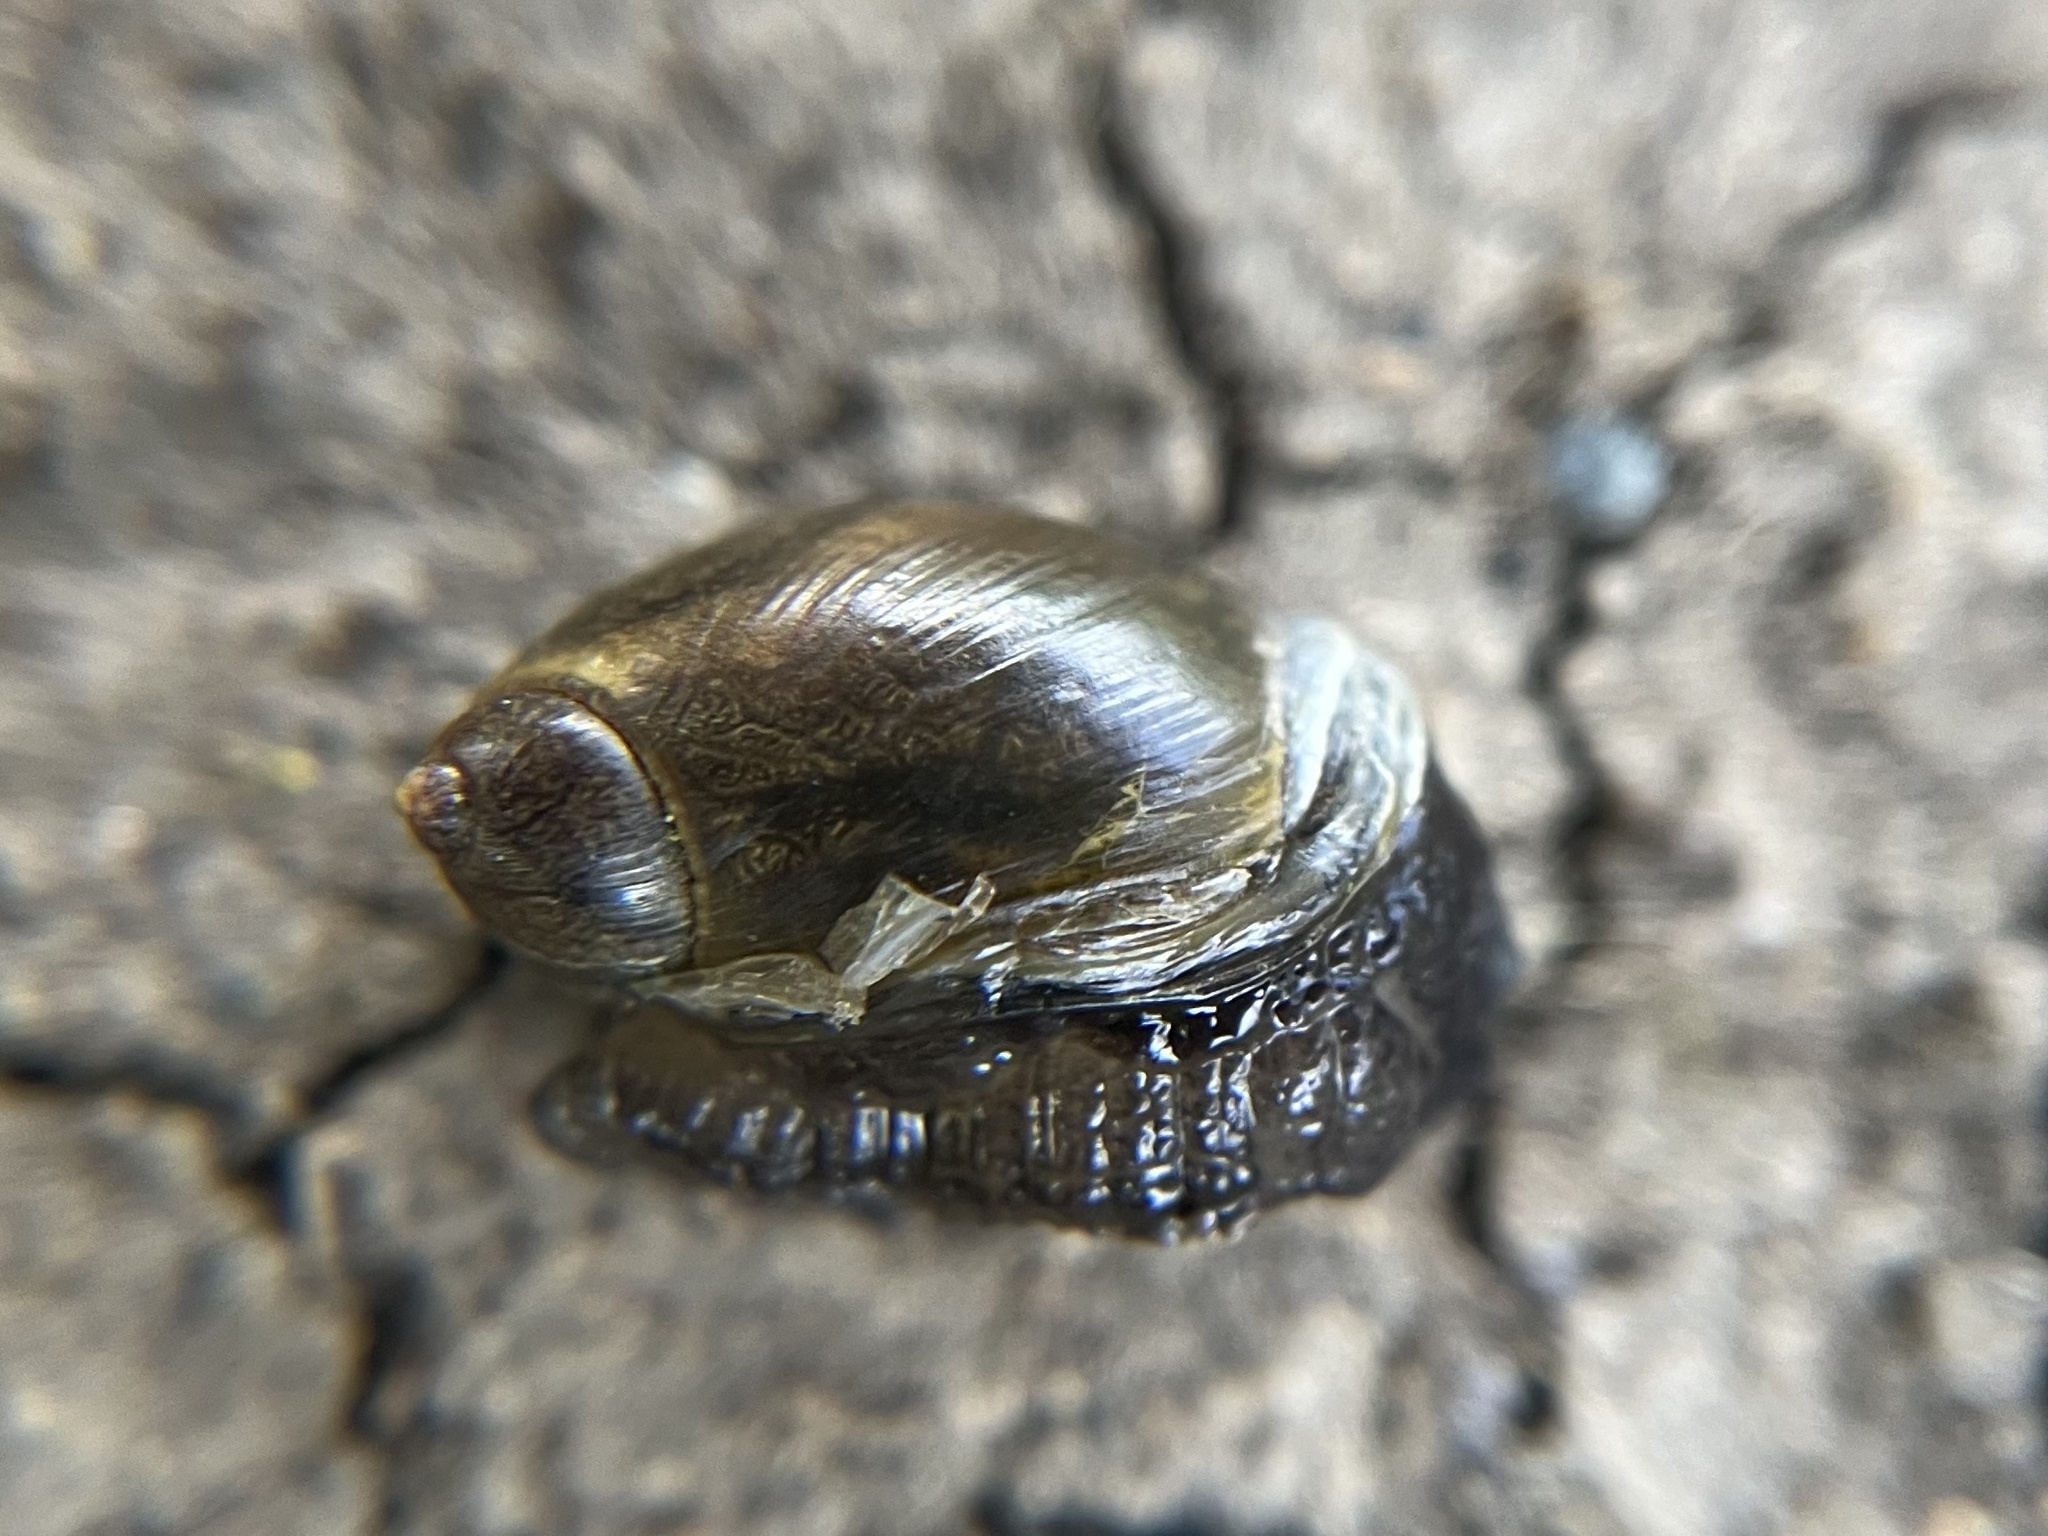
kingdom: Animalia
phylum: Mollusca
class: Gastropoda
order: Stylommatophora
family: Succineidae
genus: Succinea
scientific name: Succinea putris
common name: European ambersnail
